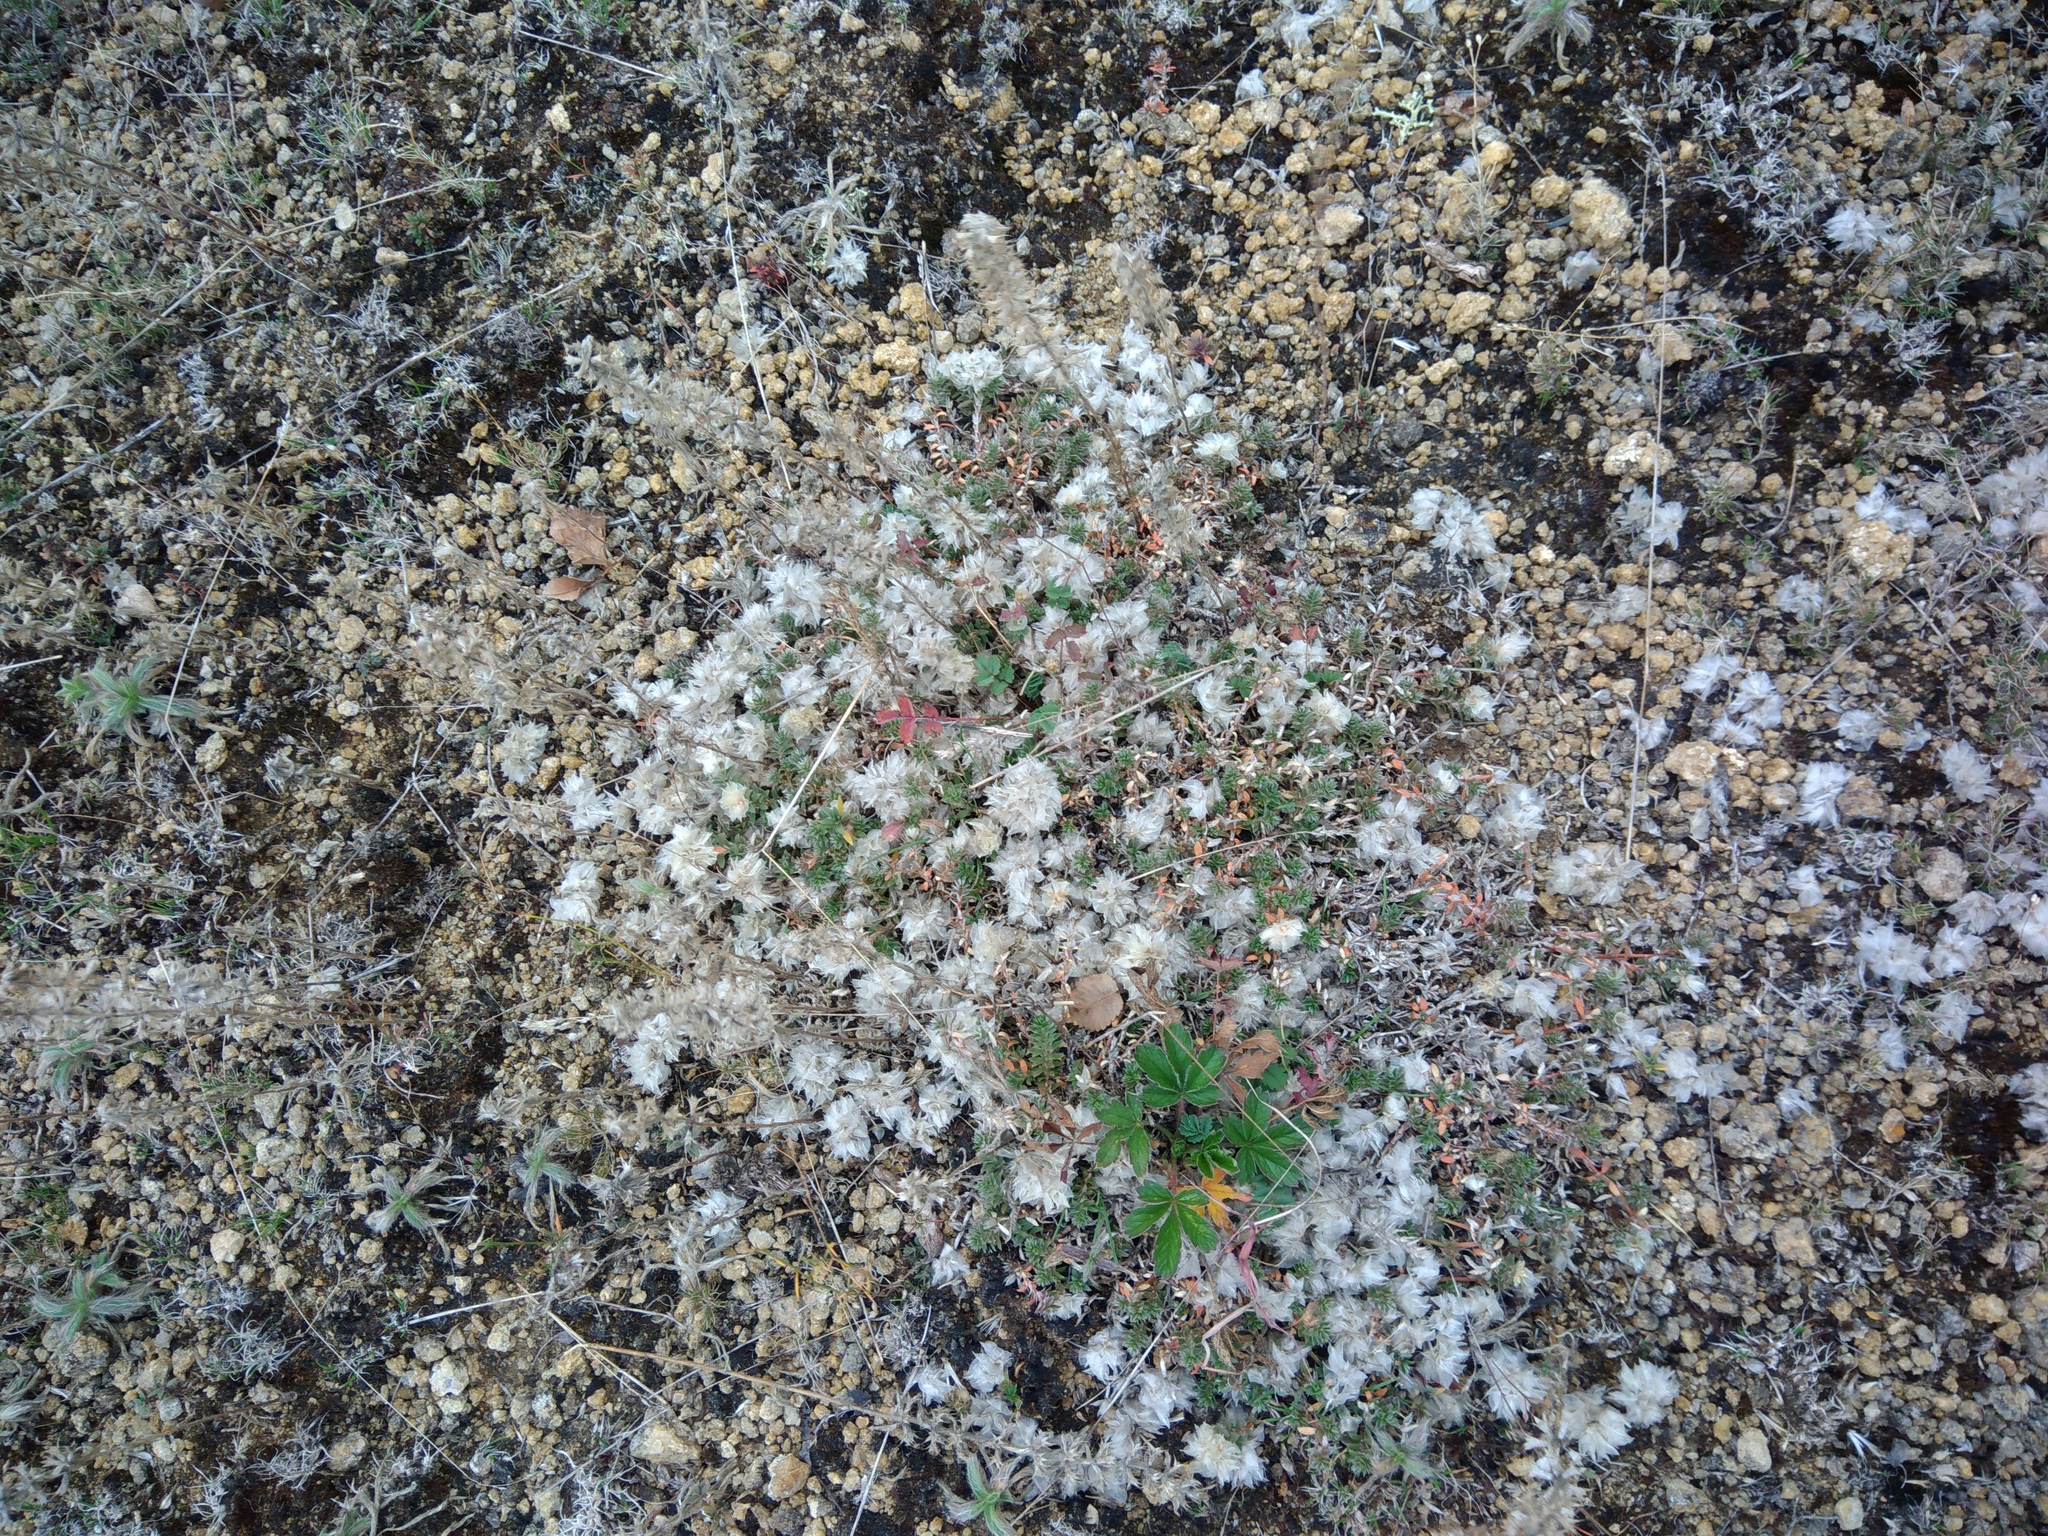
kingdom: Plantae
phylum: Tracheophyta
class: Magnoliopsida
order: Caryophyllales
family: Caryophyllaceae
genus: Paronychia
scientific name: Paronychia cephalotes
